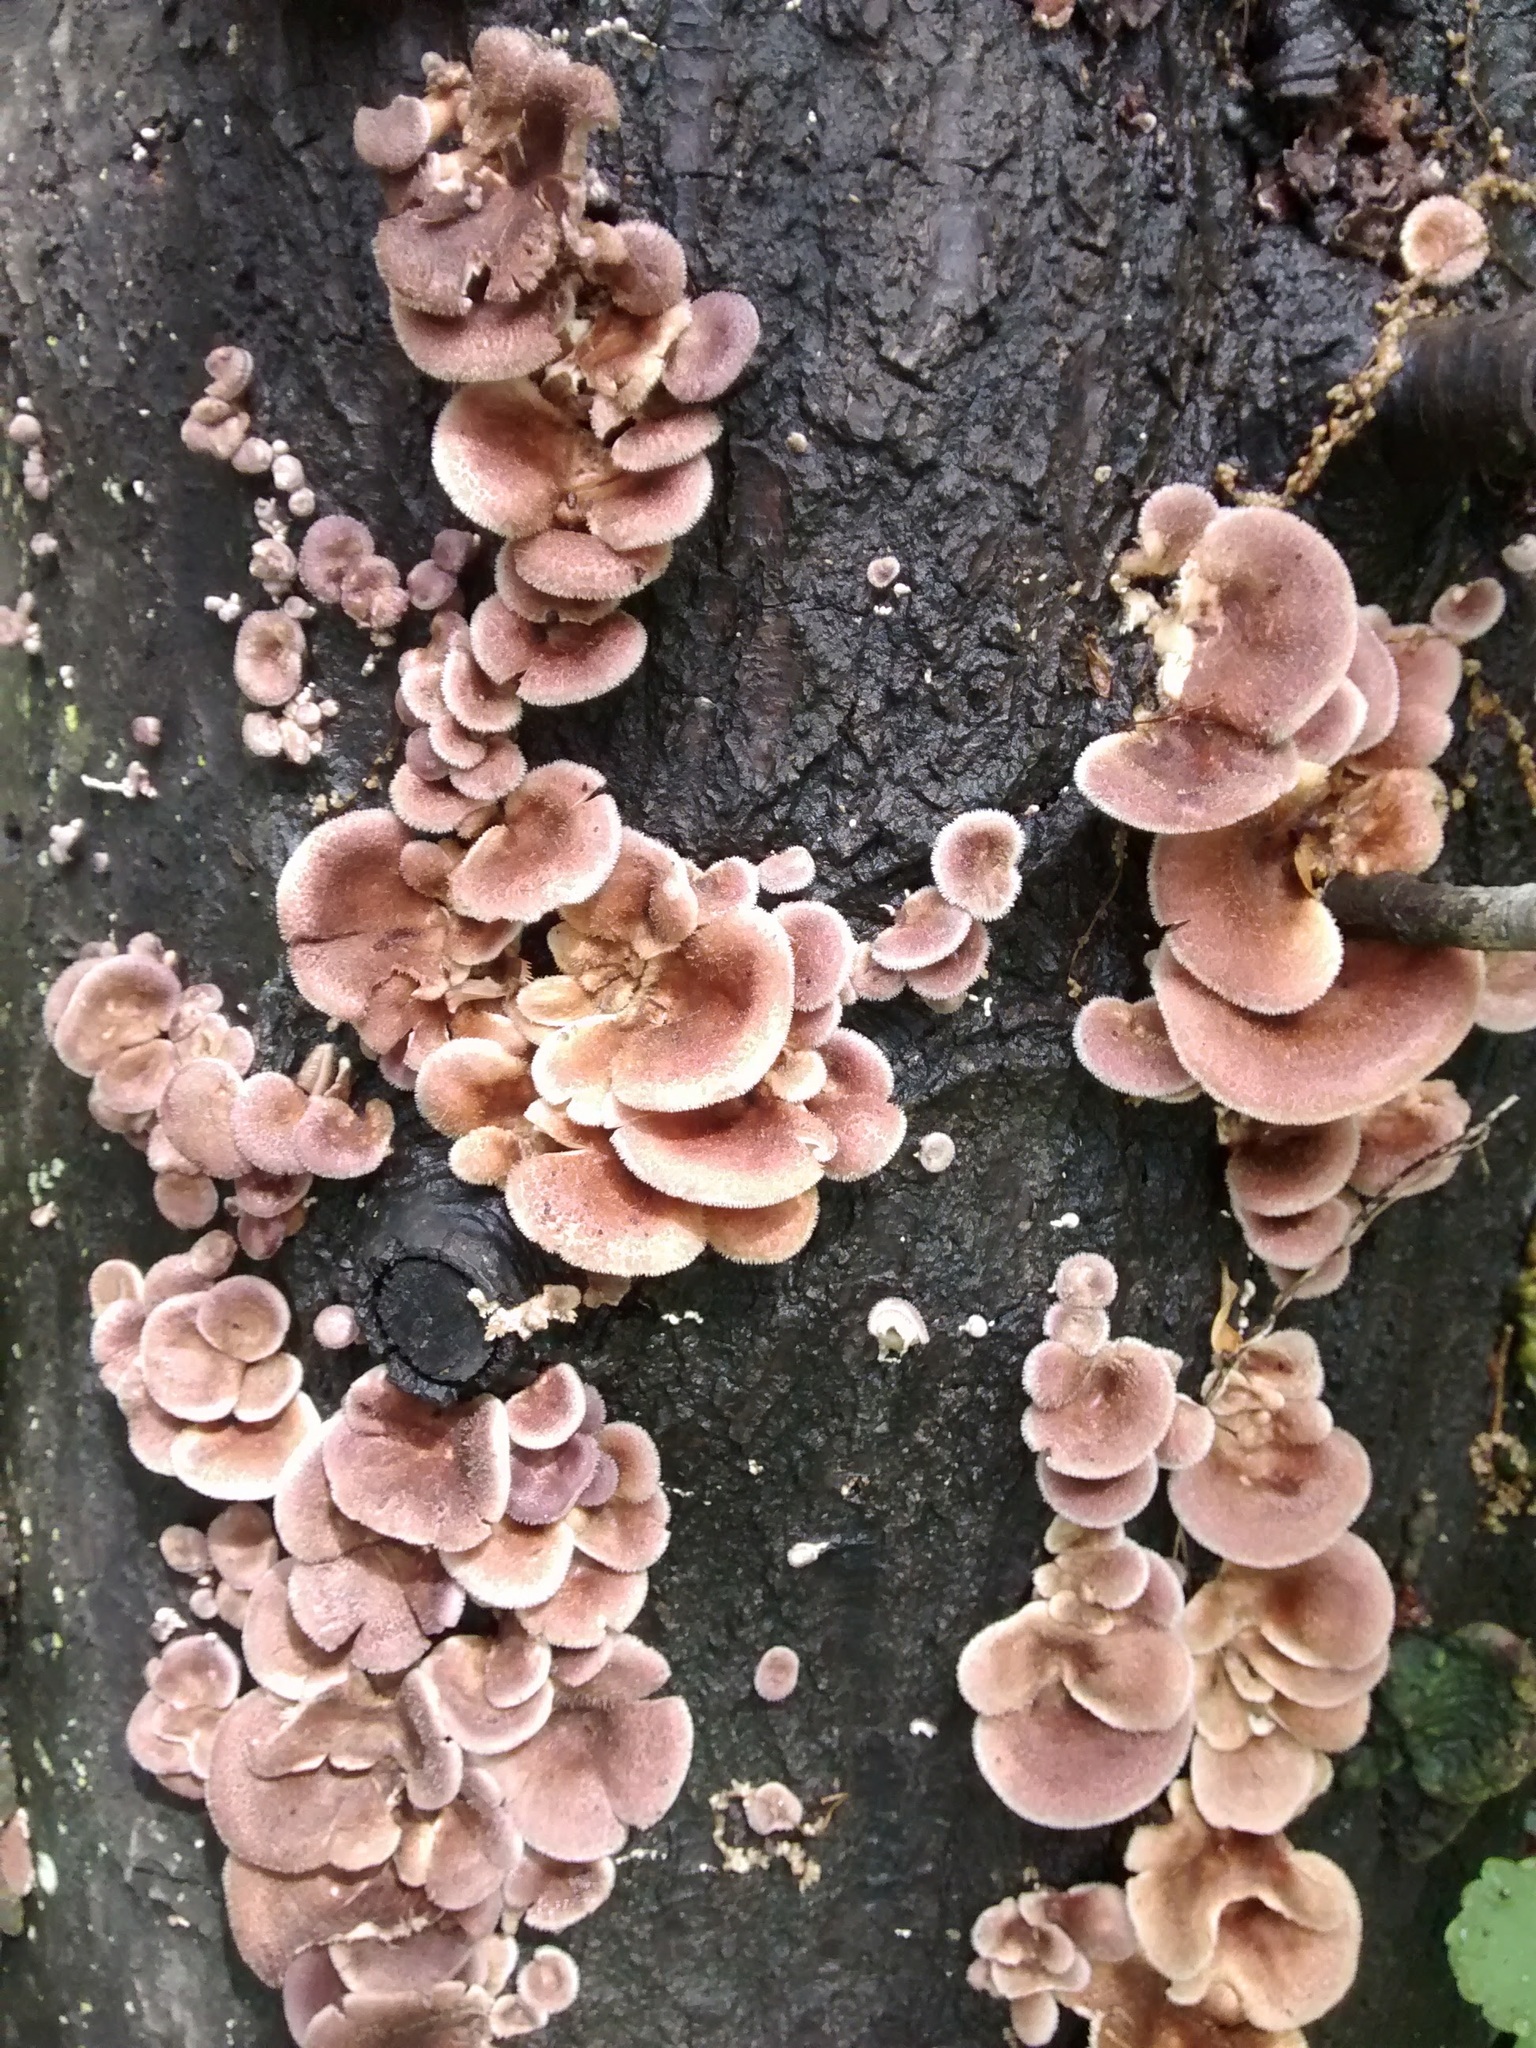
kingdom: Fungi
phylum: Basidiomycota
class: Agaricomycetes
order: Polyporales
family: Panaceae
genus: Panus
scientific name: Panus neostrigosus
